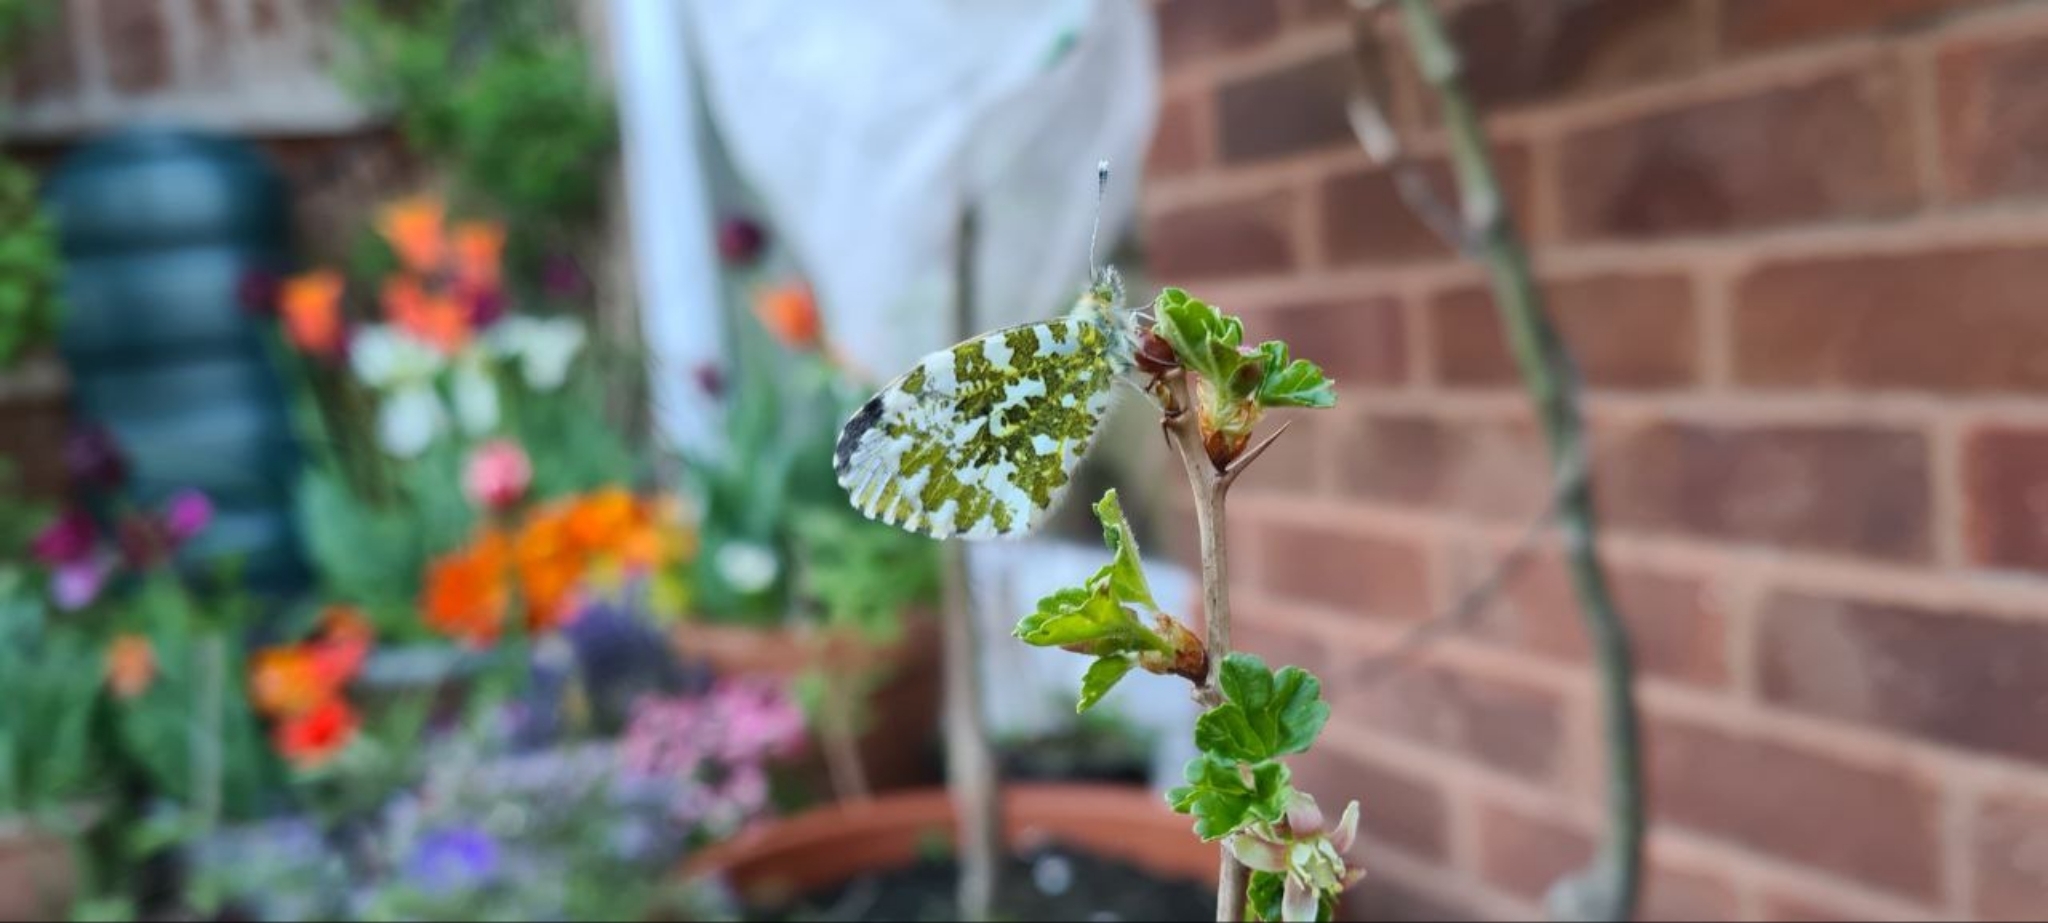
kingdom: Animalia
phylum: Arthropoda
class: Insecta
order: Lepidoptera
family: Pieridae
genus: Anthocharis
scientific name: Anthocharis cardamines
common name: Orange-tip
